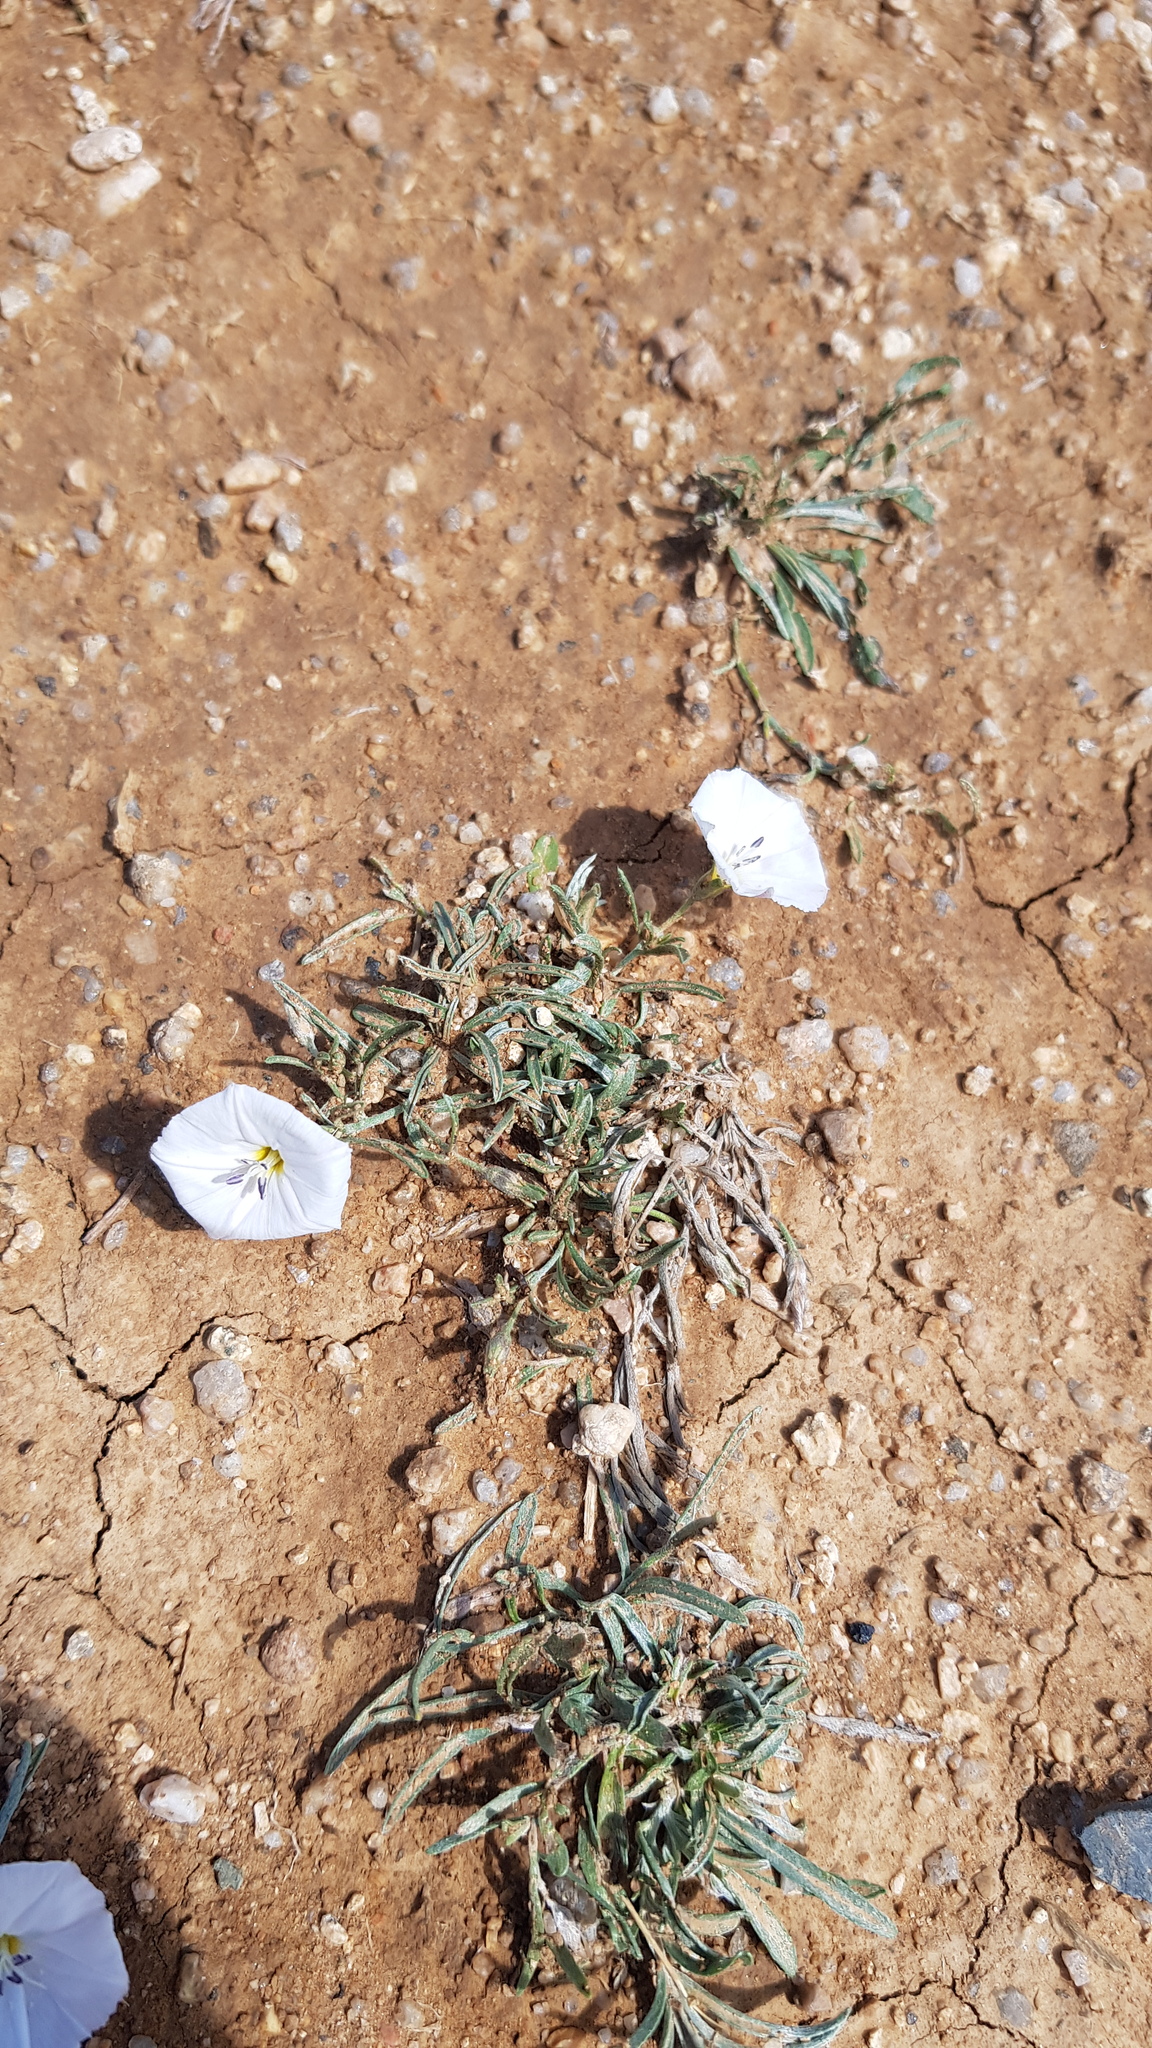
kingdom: Plantae
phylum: Tracheophyta
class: Magnoliopsida
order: Solanales
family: Convolvulaceae
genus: Convolvulus
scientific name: Convolvulus ammannii
